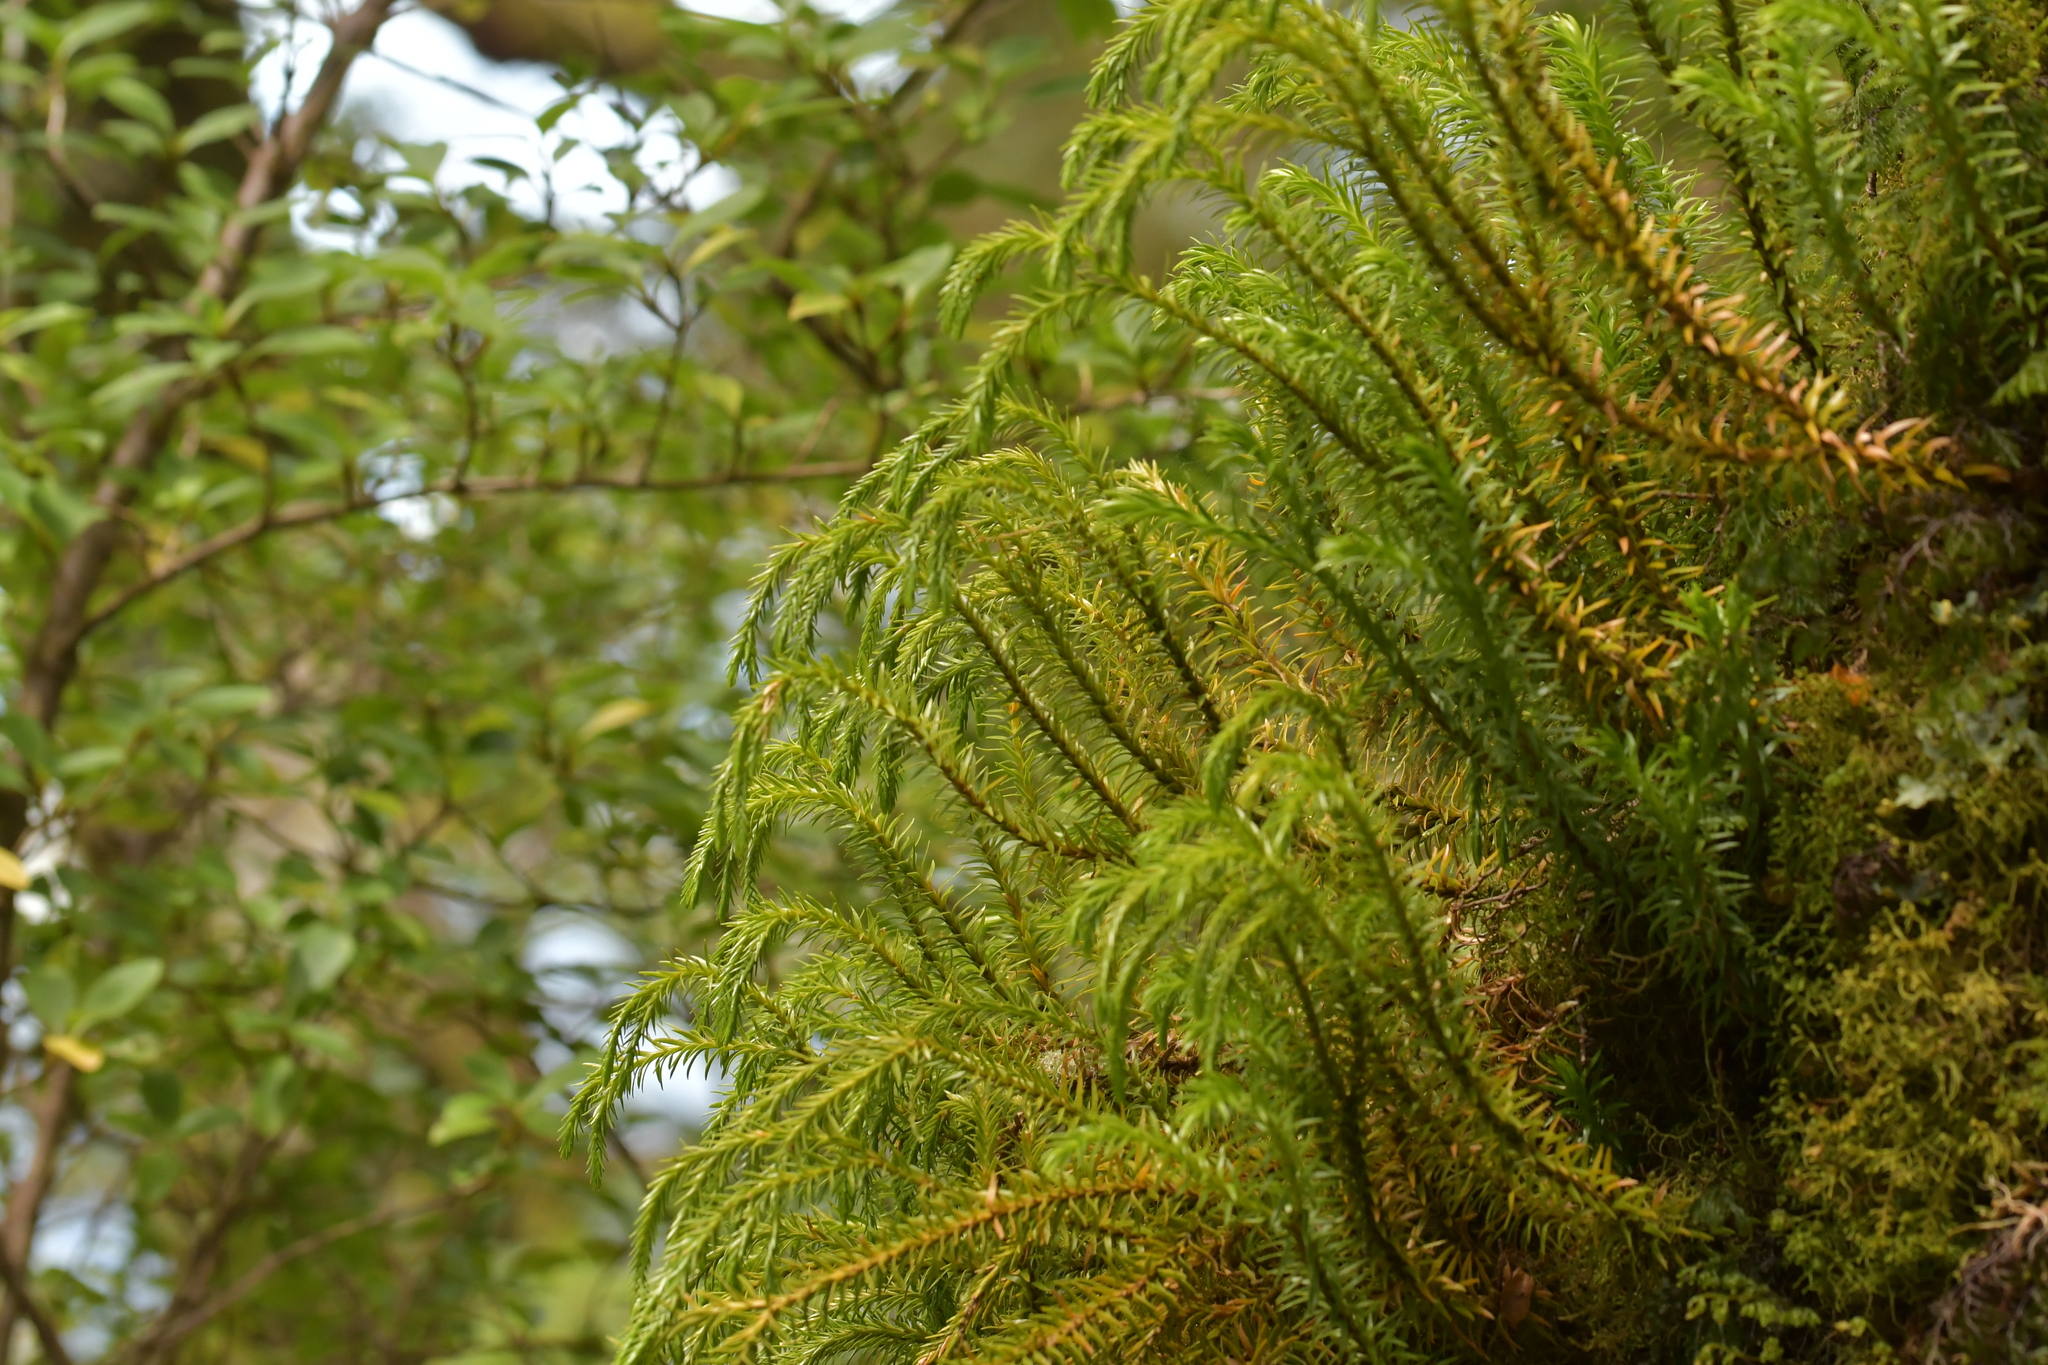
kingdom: Plantae
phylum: Tracheophyta
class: Lycopodiopsida
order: Lycopodiales
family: Lycopodiaceae
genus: Phlegmariurus
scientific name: Phlegmariurus varius
